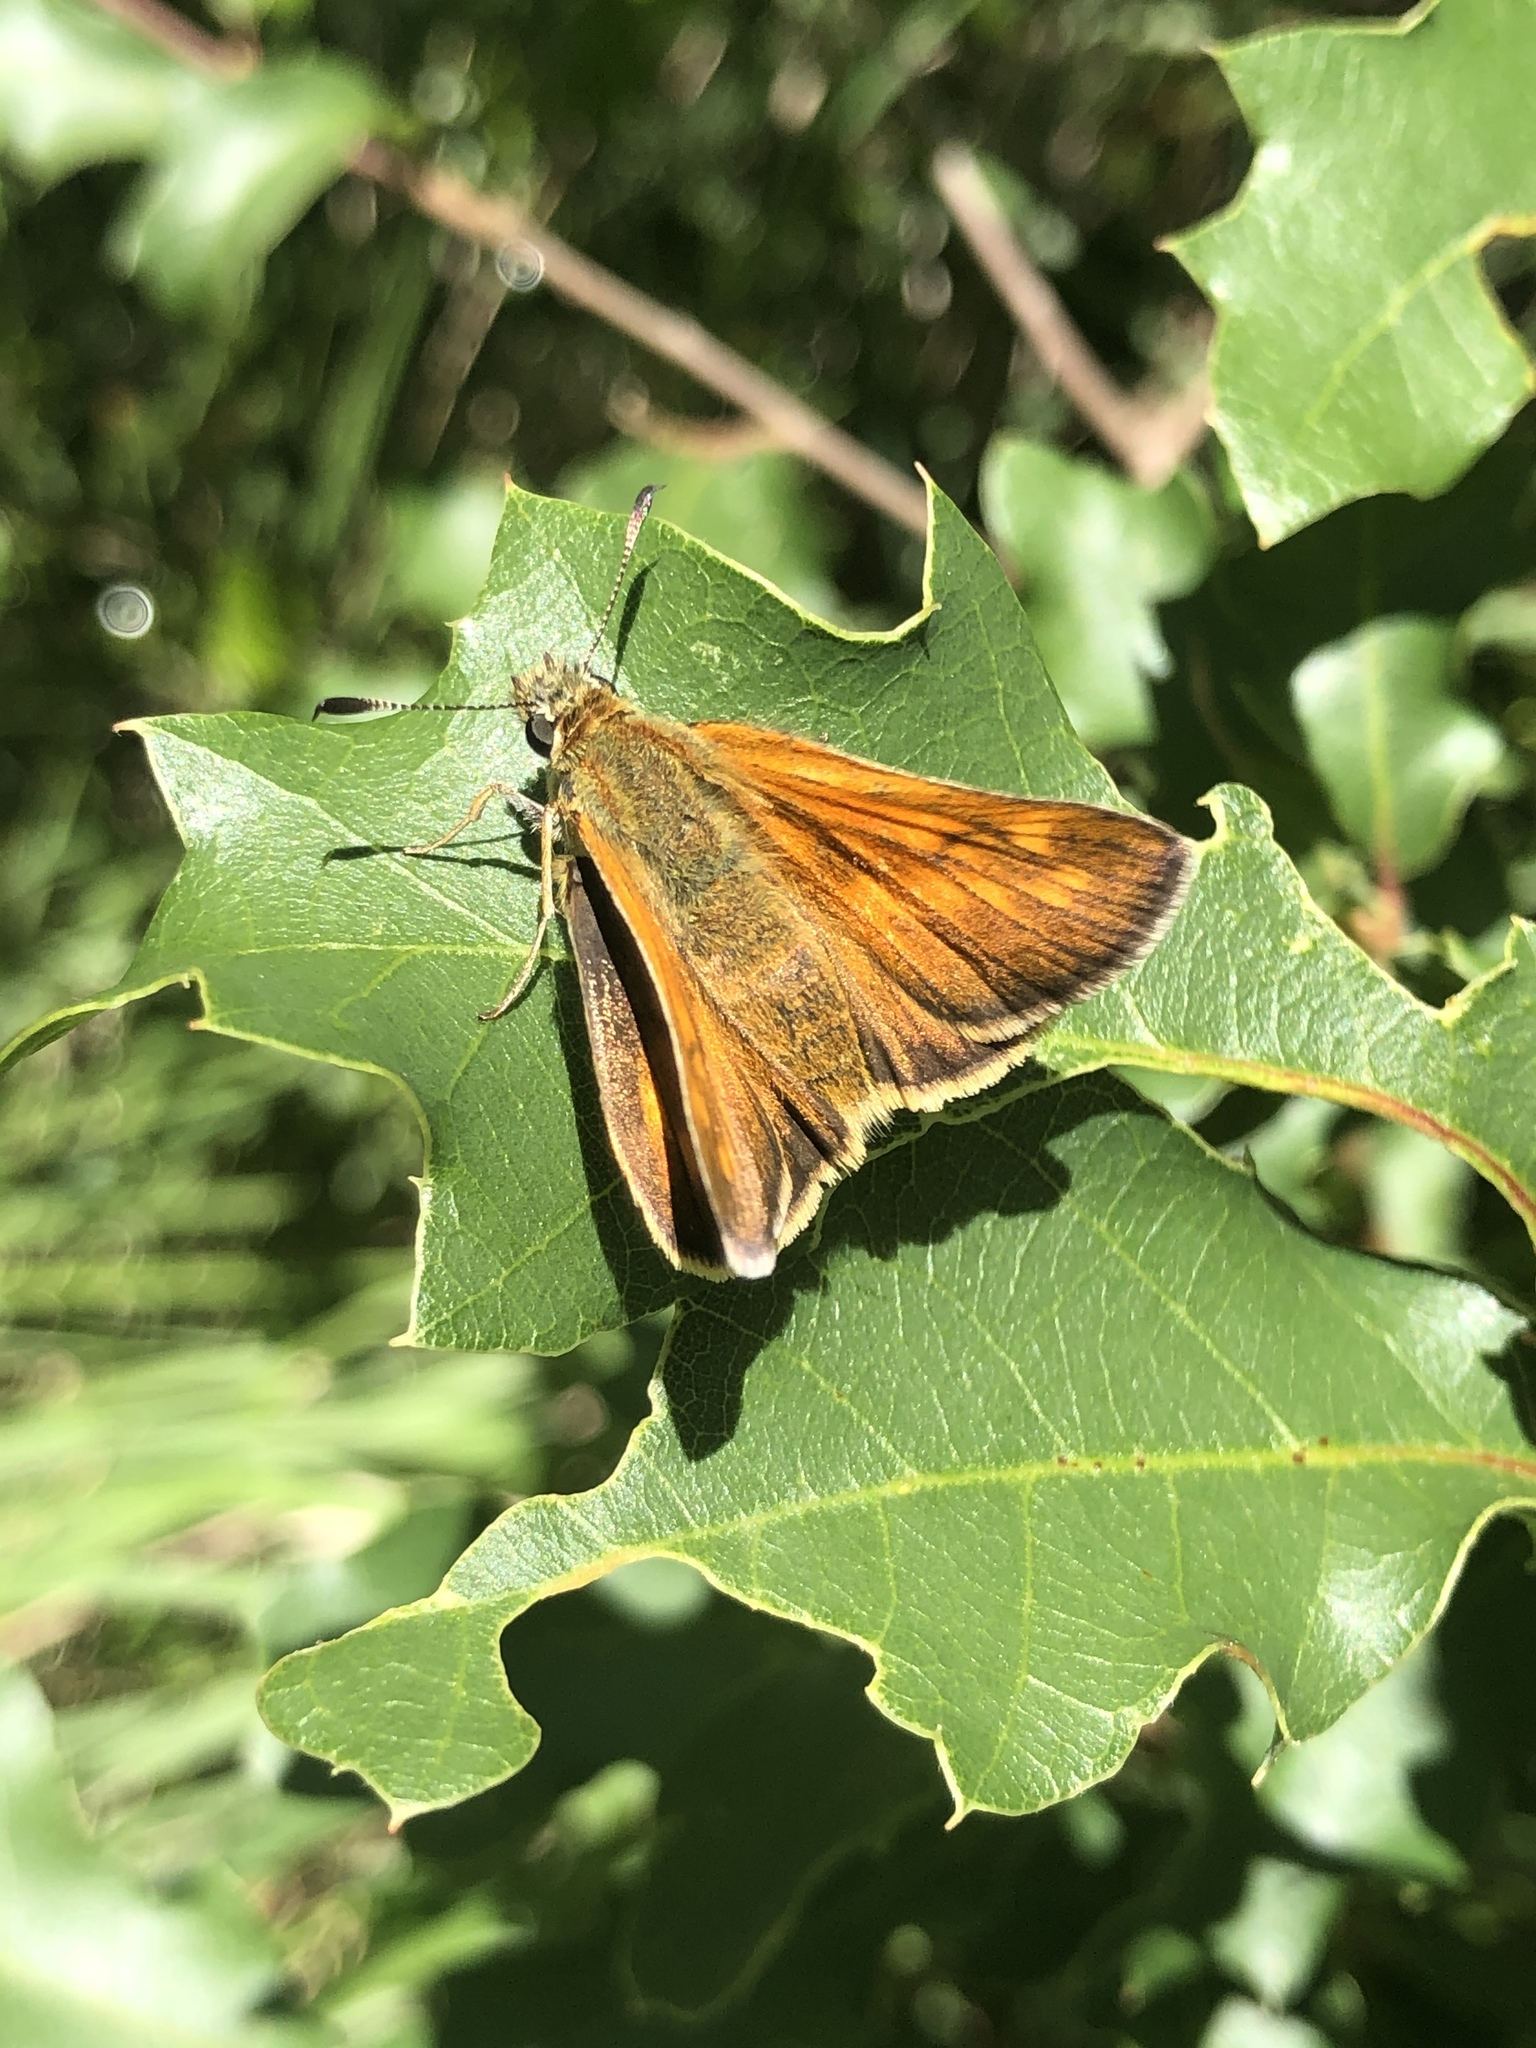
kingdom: Animalia
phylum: Arthropoda
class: Insecta
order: Lepidoptera
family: Hesperiidae
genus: Ochlodes
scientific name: Ochlodes venata
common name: Large skipper
